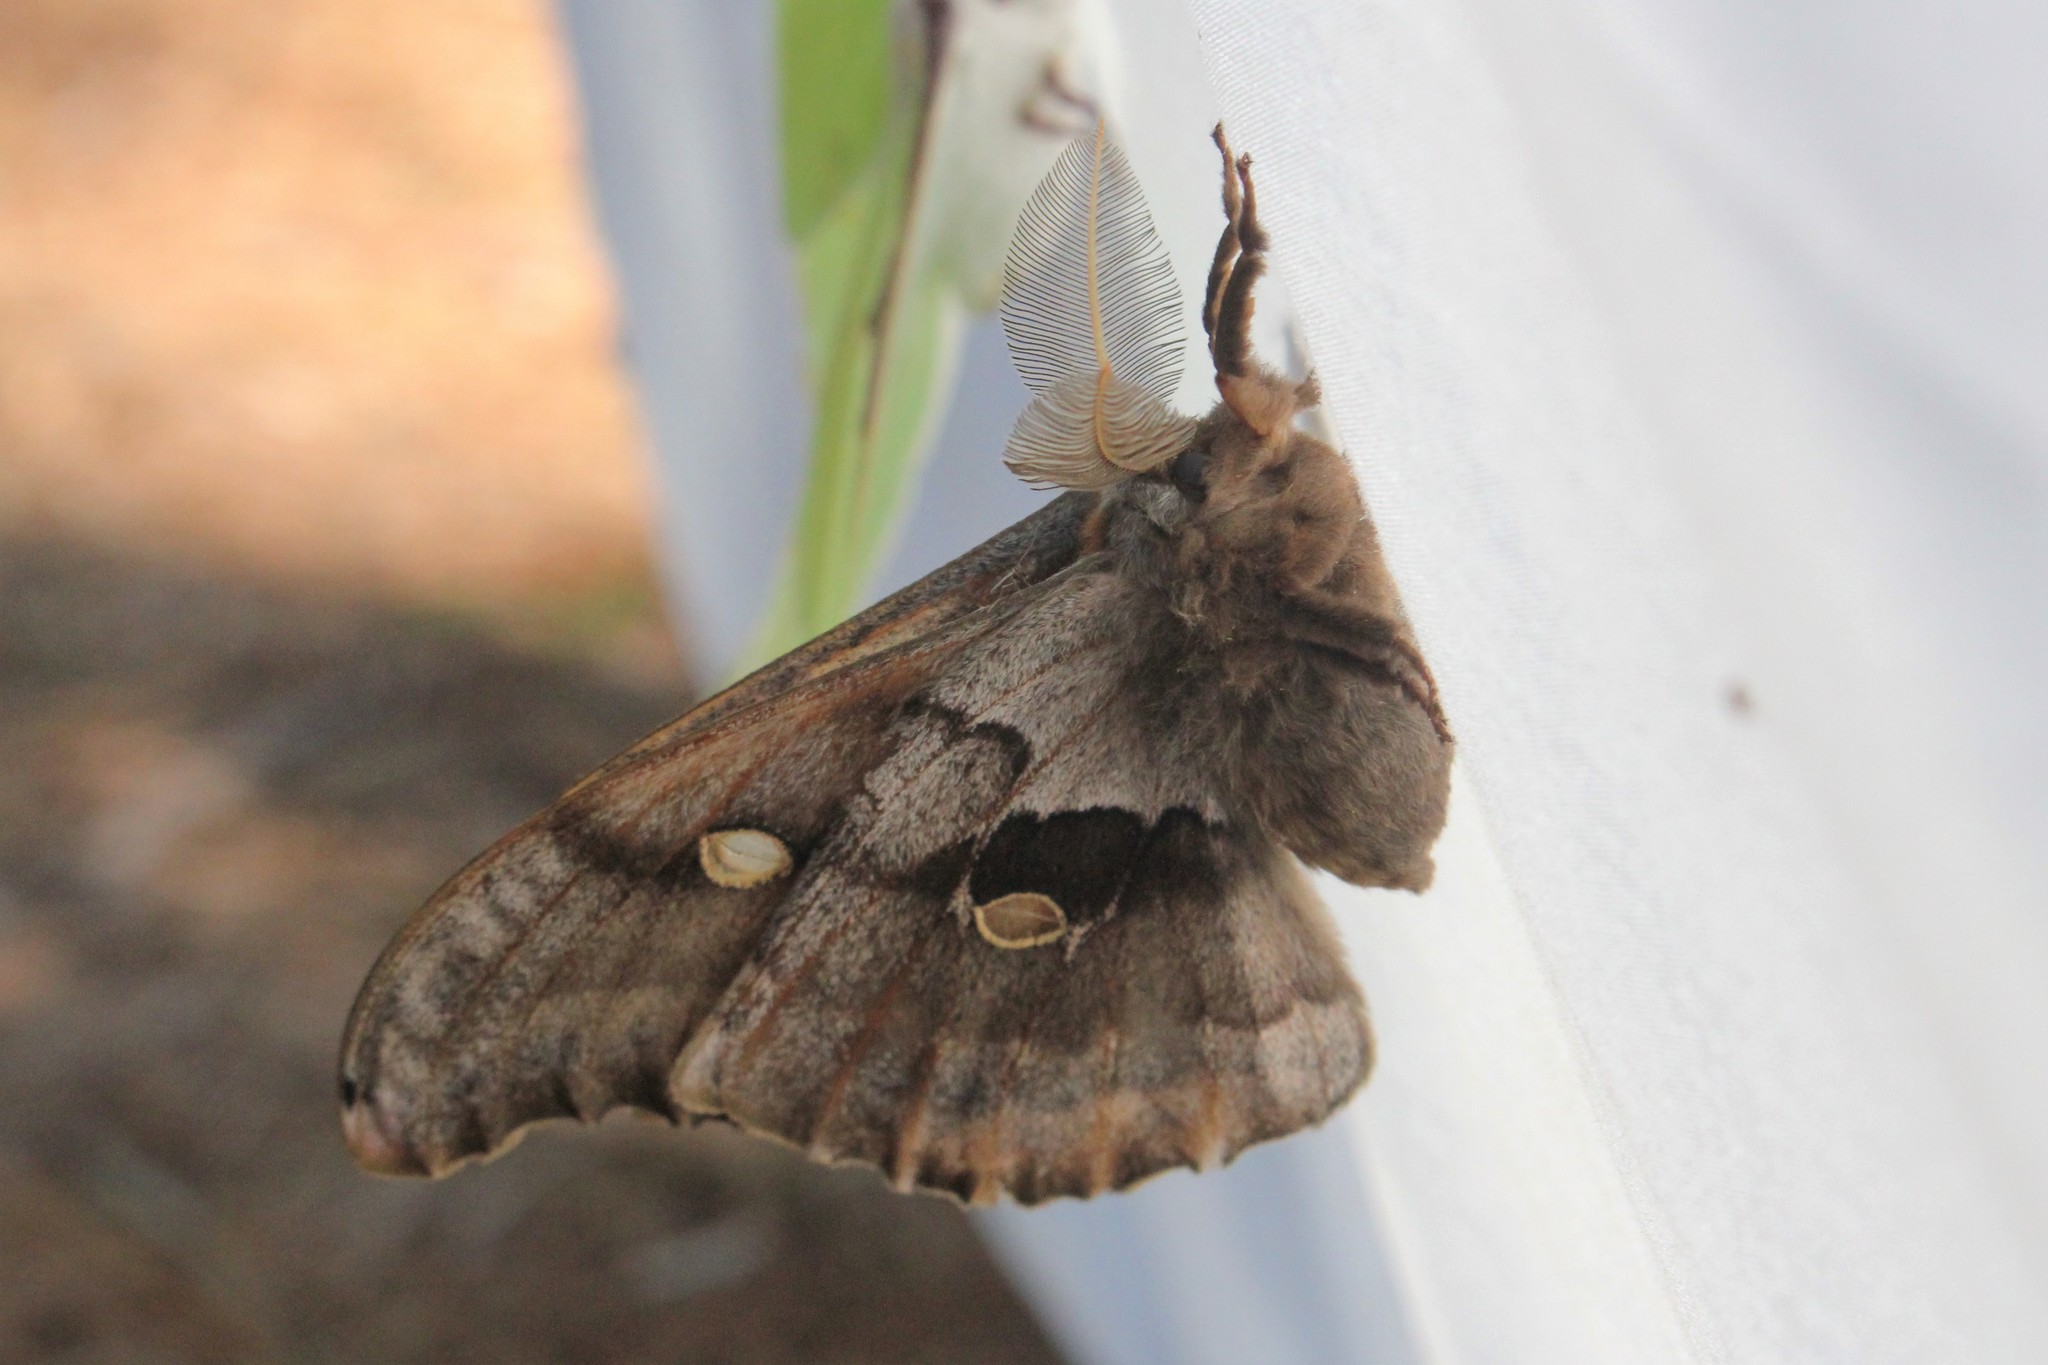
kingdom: Animalia
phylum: Arthropoda
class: Insecta
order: Lepidoptera
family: Saturniidae
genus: Antheraea
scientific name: Antheraea polyphemus
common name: Polyphemus moth
